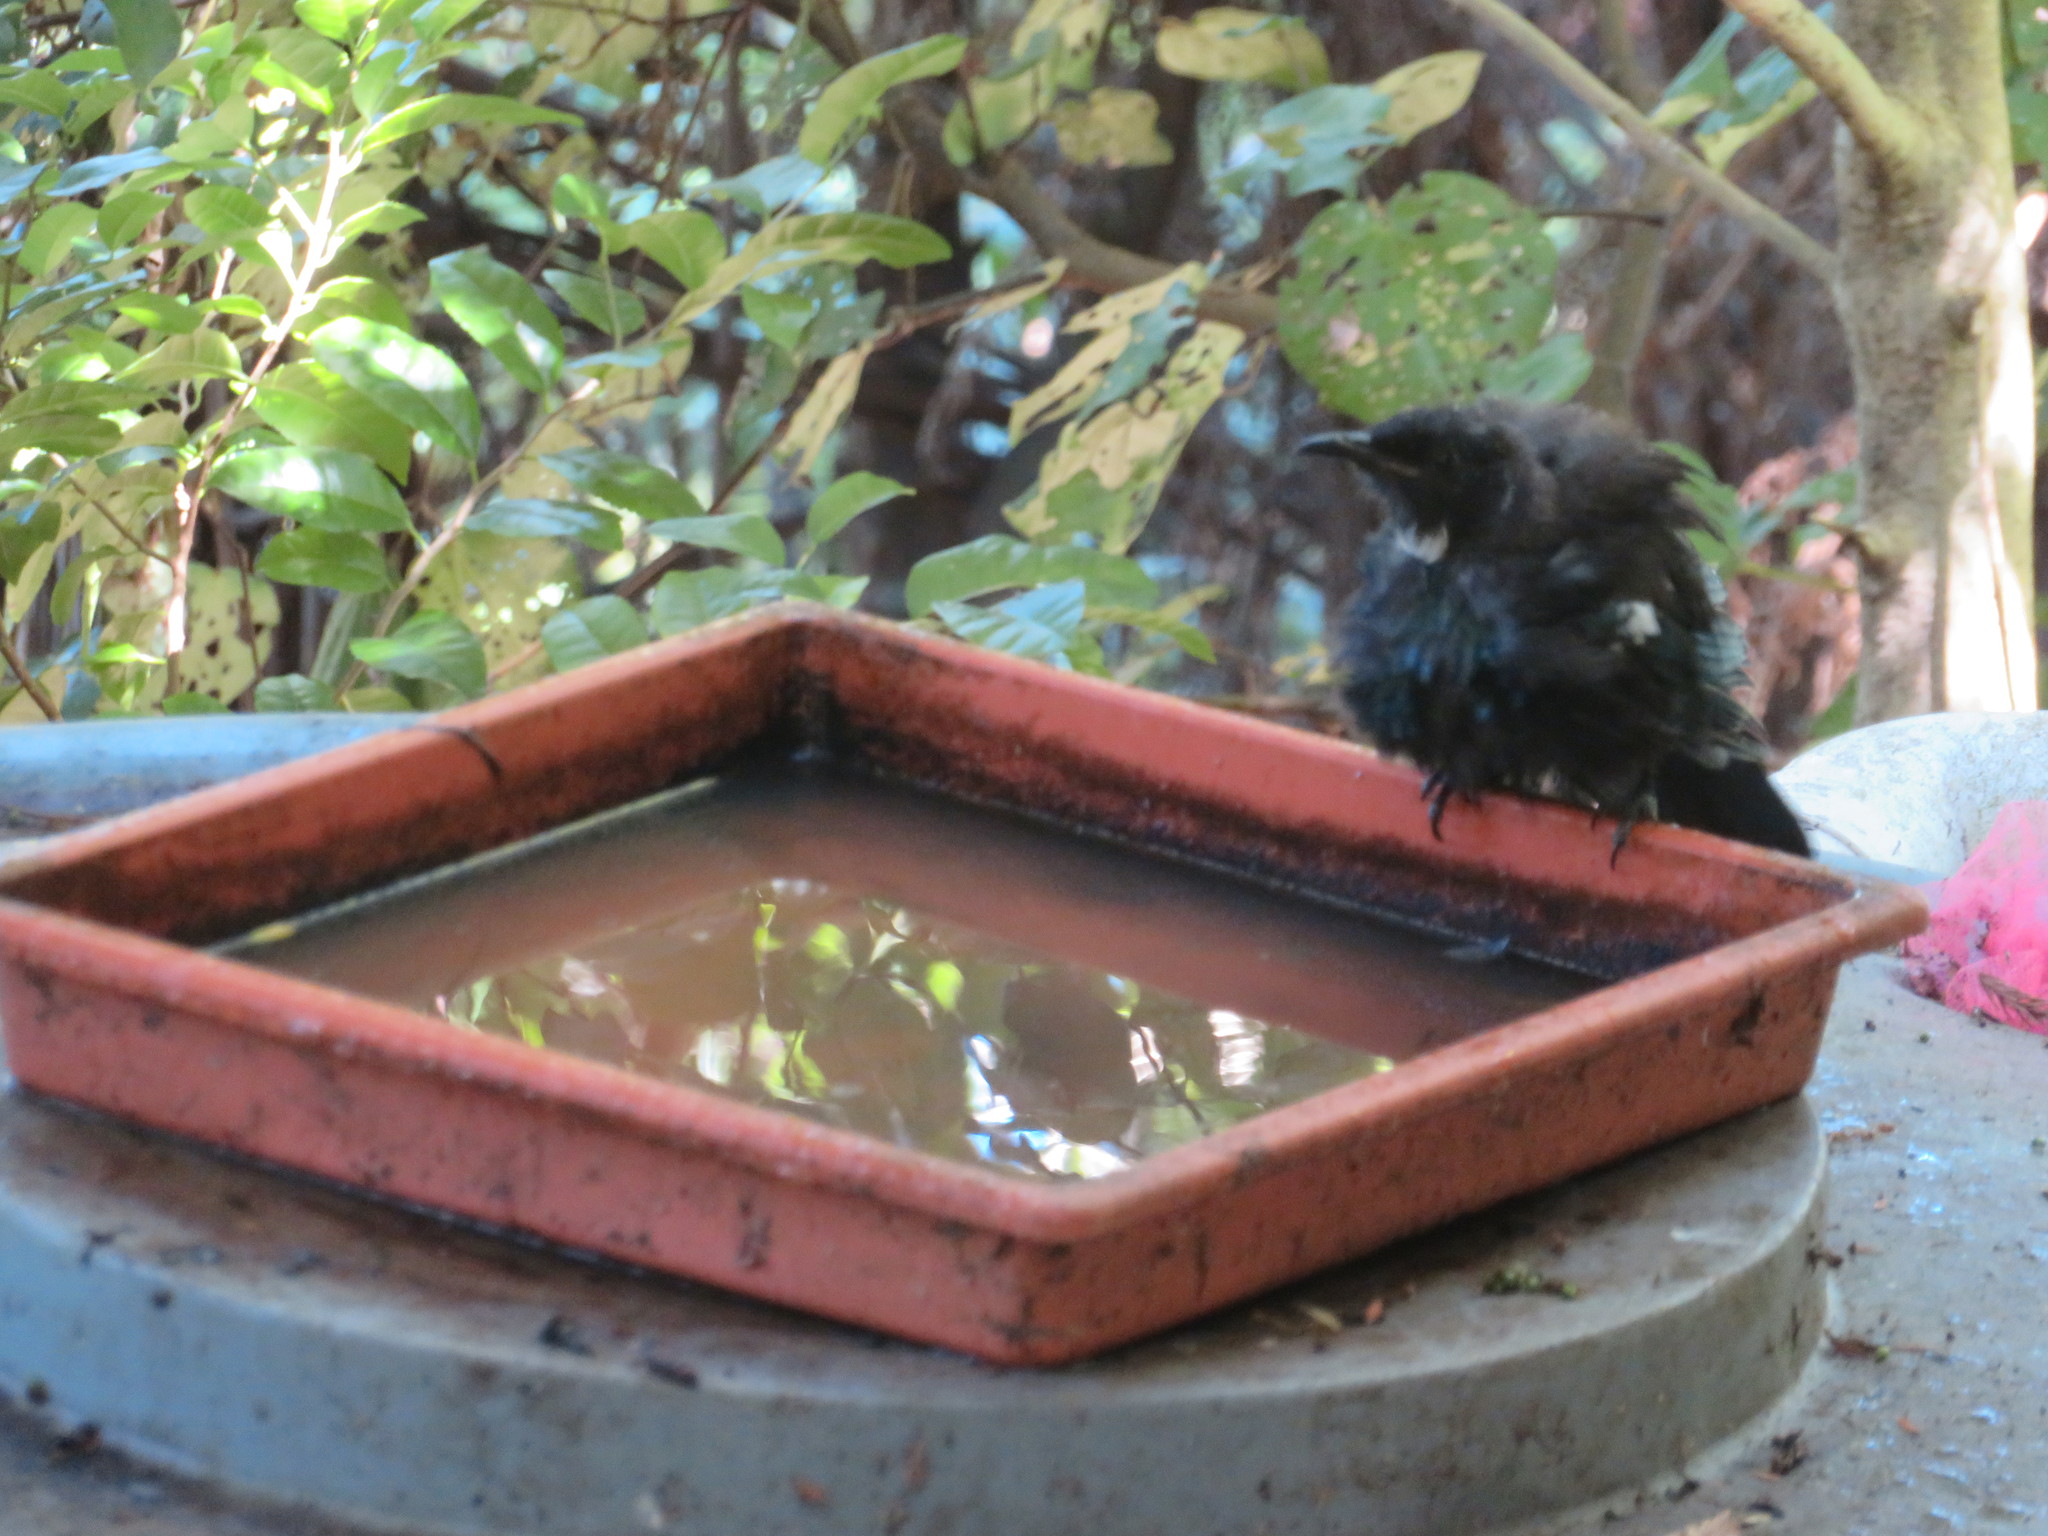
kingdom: Animalia
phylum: Chordata
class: Aves
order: Passeriformes
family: Meliphagidae
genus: Prosthemadera
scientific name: Prosthemadera novaeseelandiae
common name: Tui
